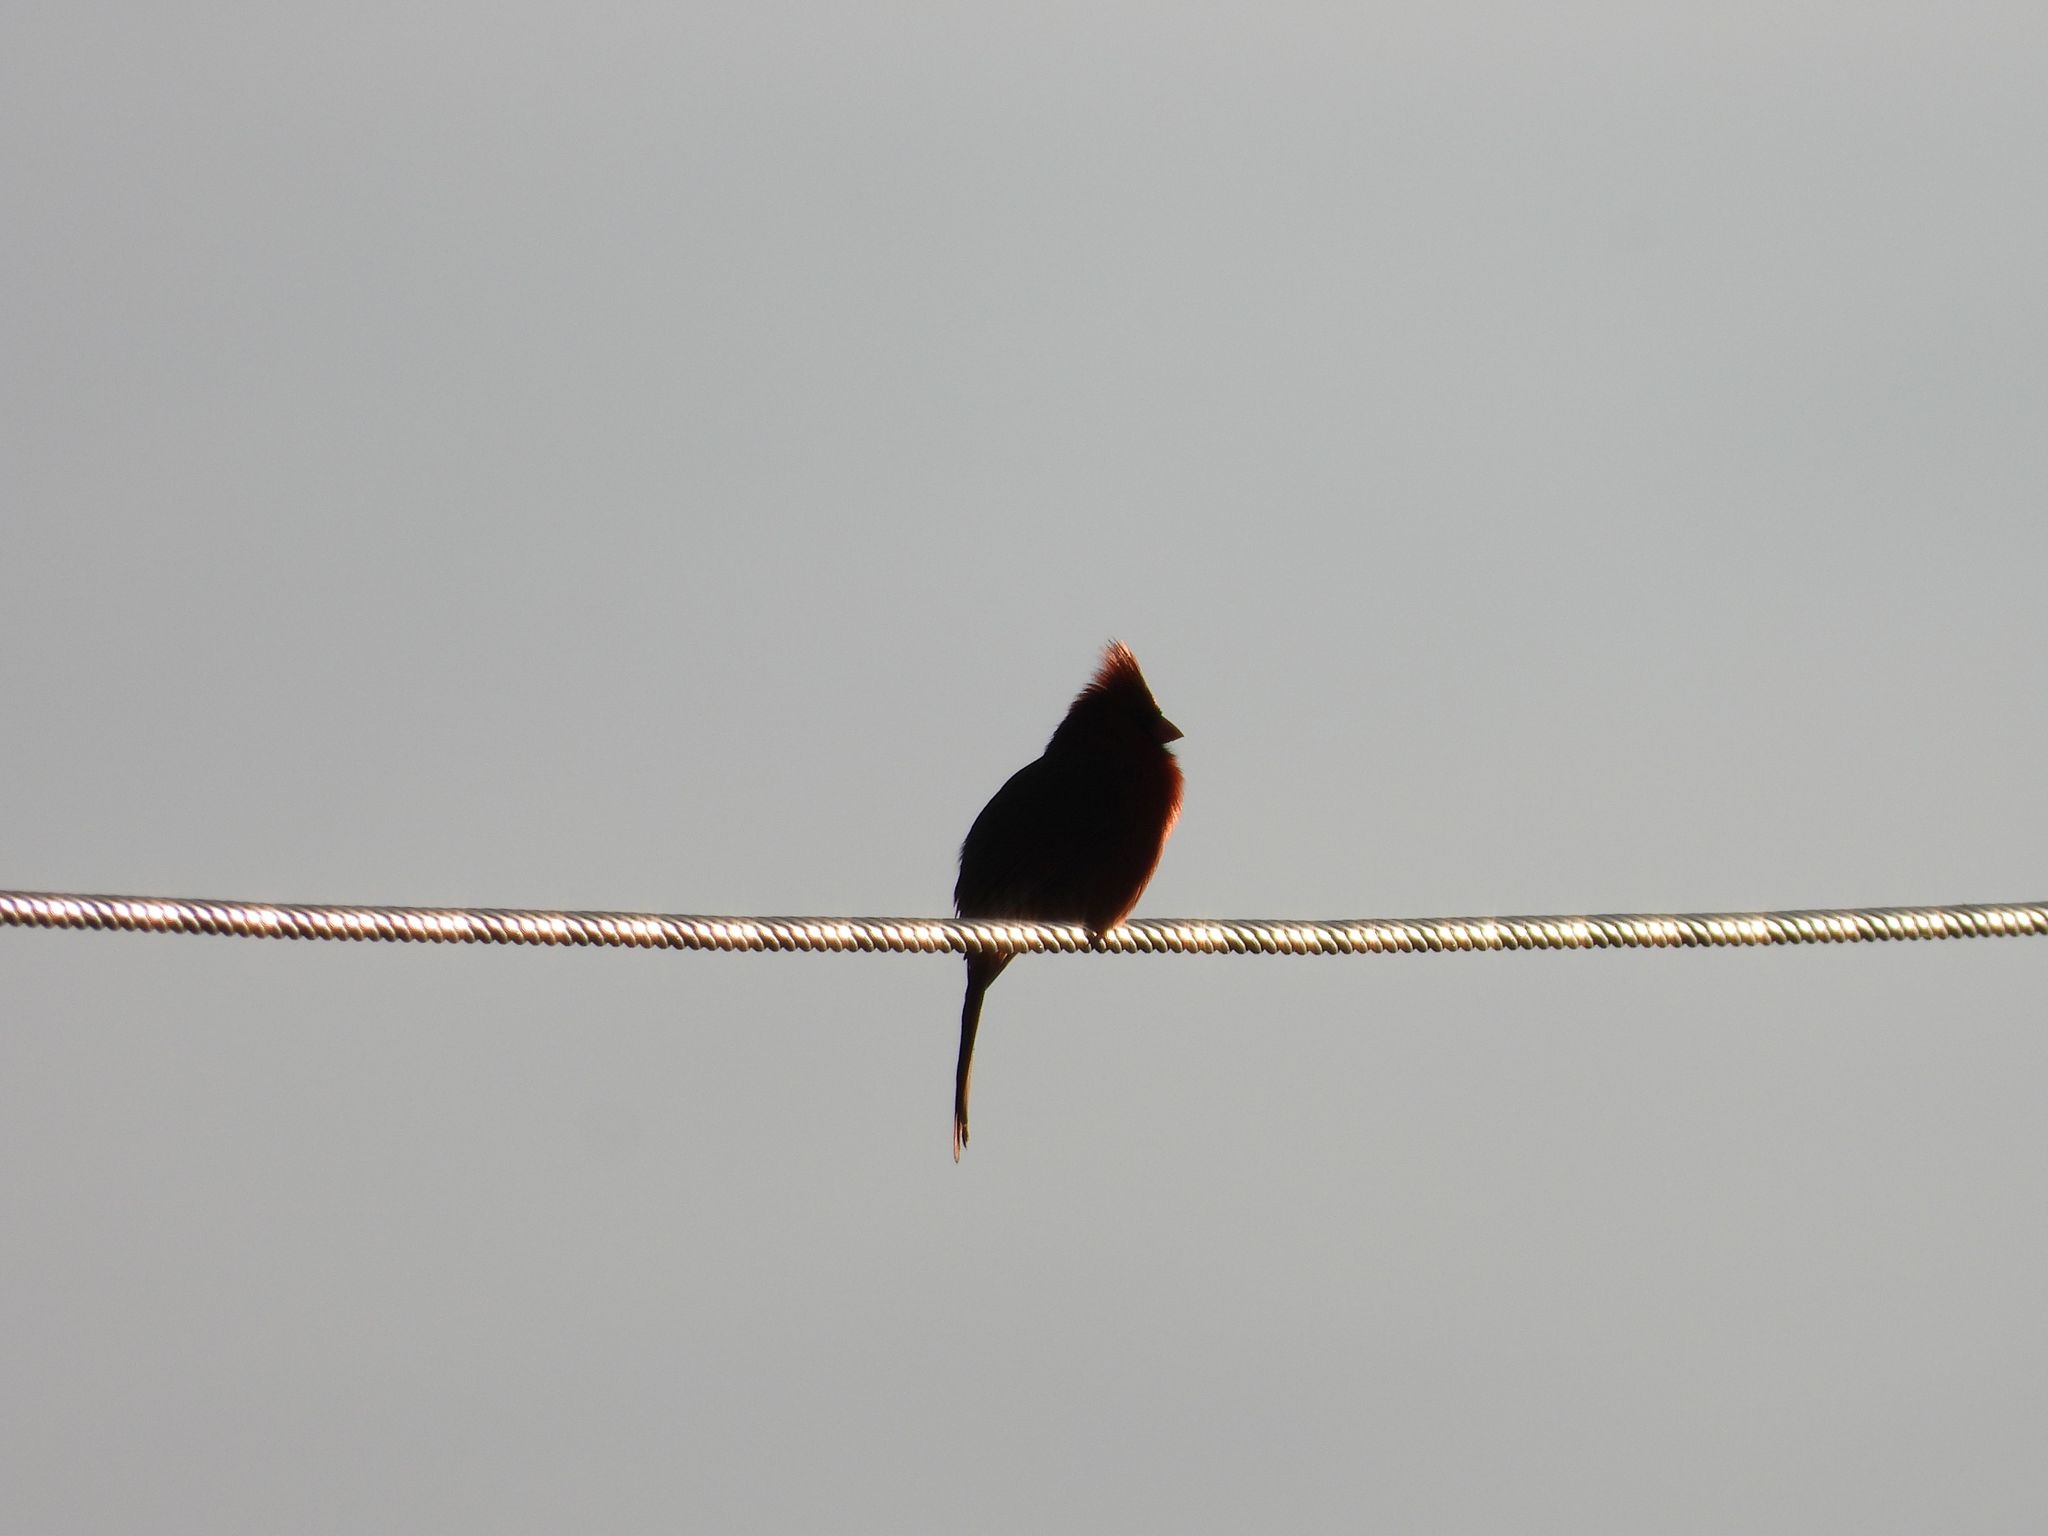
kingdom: Animalia
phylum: Chordata
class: Aves
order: Passeriformes
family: Cardinalidae
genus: Cardinalis
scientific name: Cardinalis cardinalis
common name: Northern cardinal
